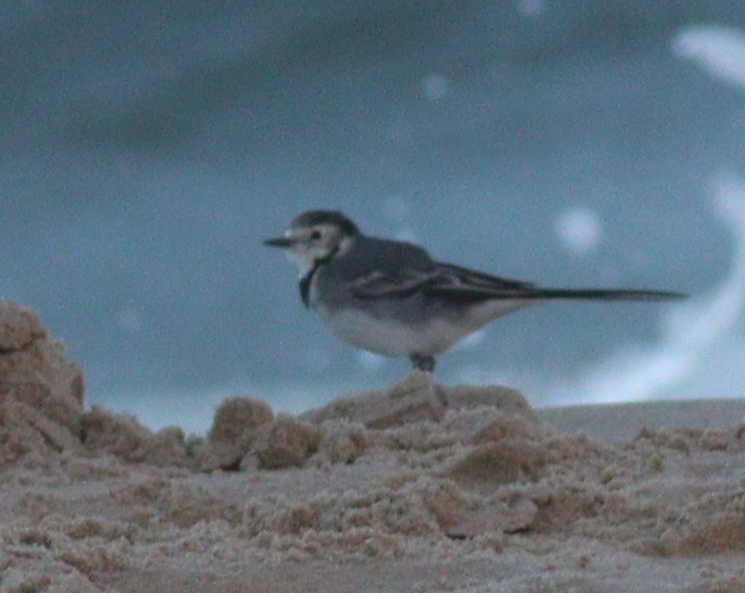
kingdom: Animalia
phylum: Chordata
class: Aves
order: Passeriformes
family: Motacillidae
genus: Motacilla
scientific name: Motacilla alba
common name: White wagtail
